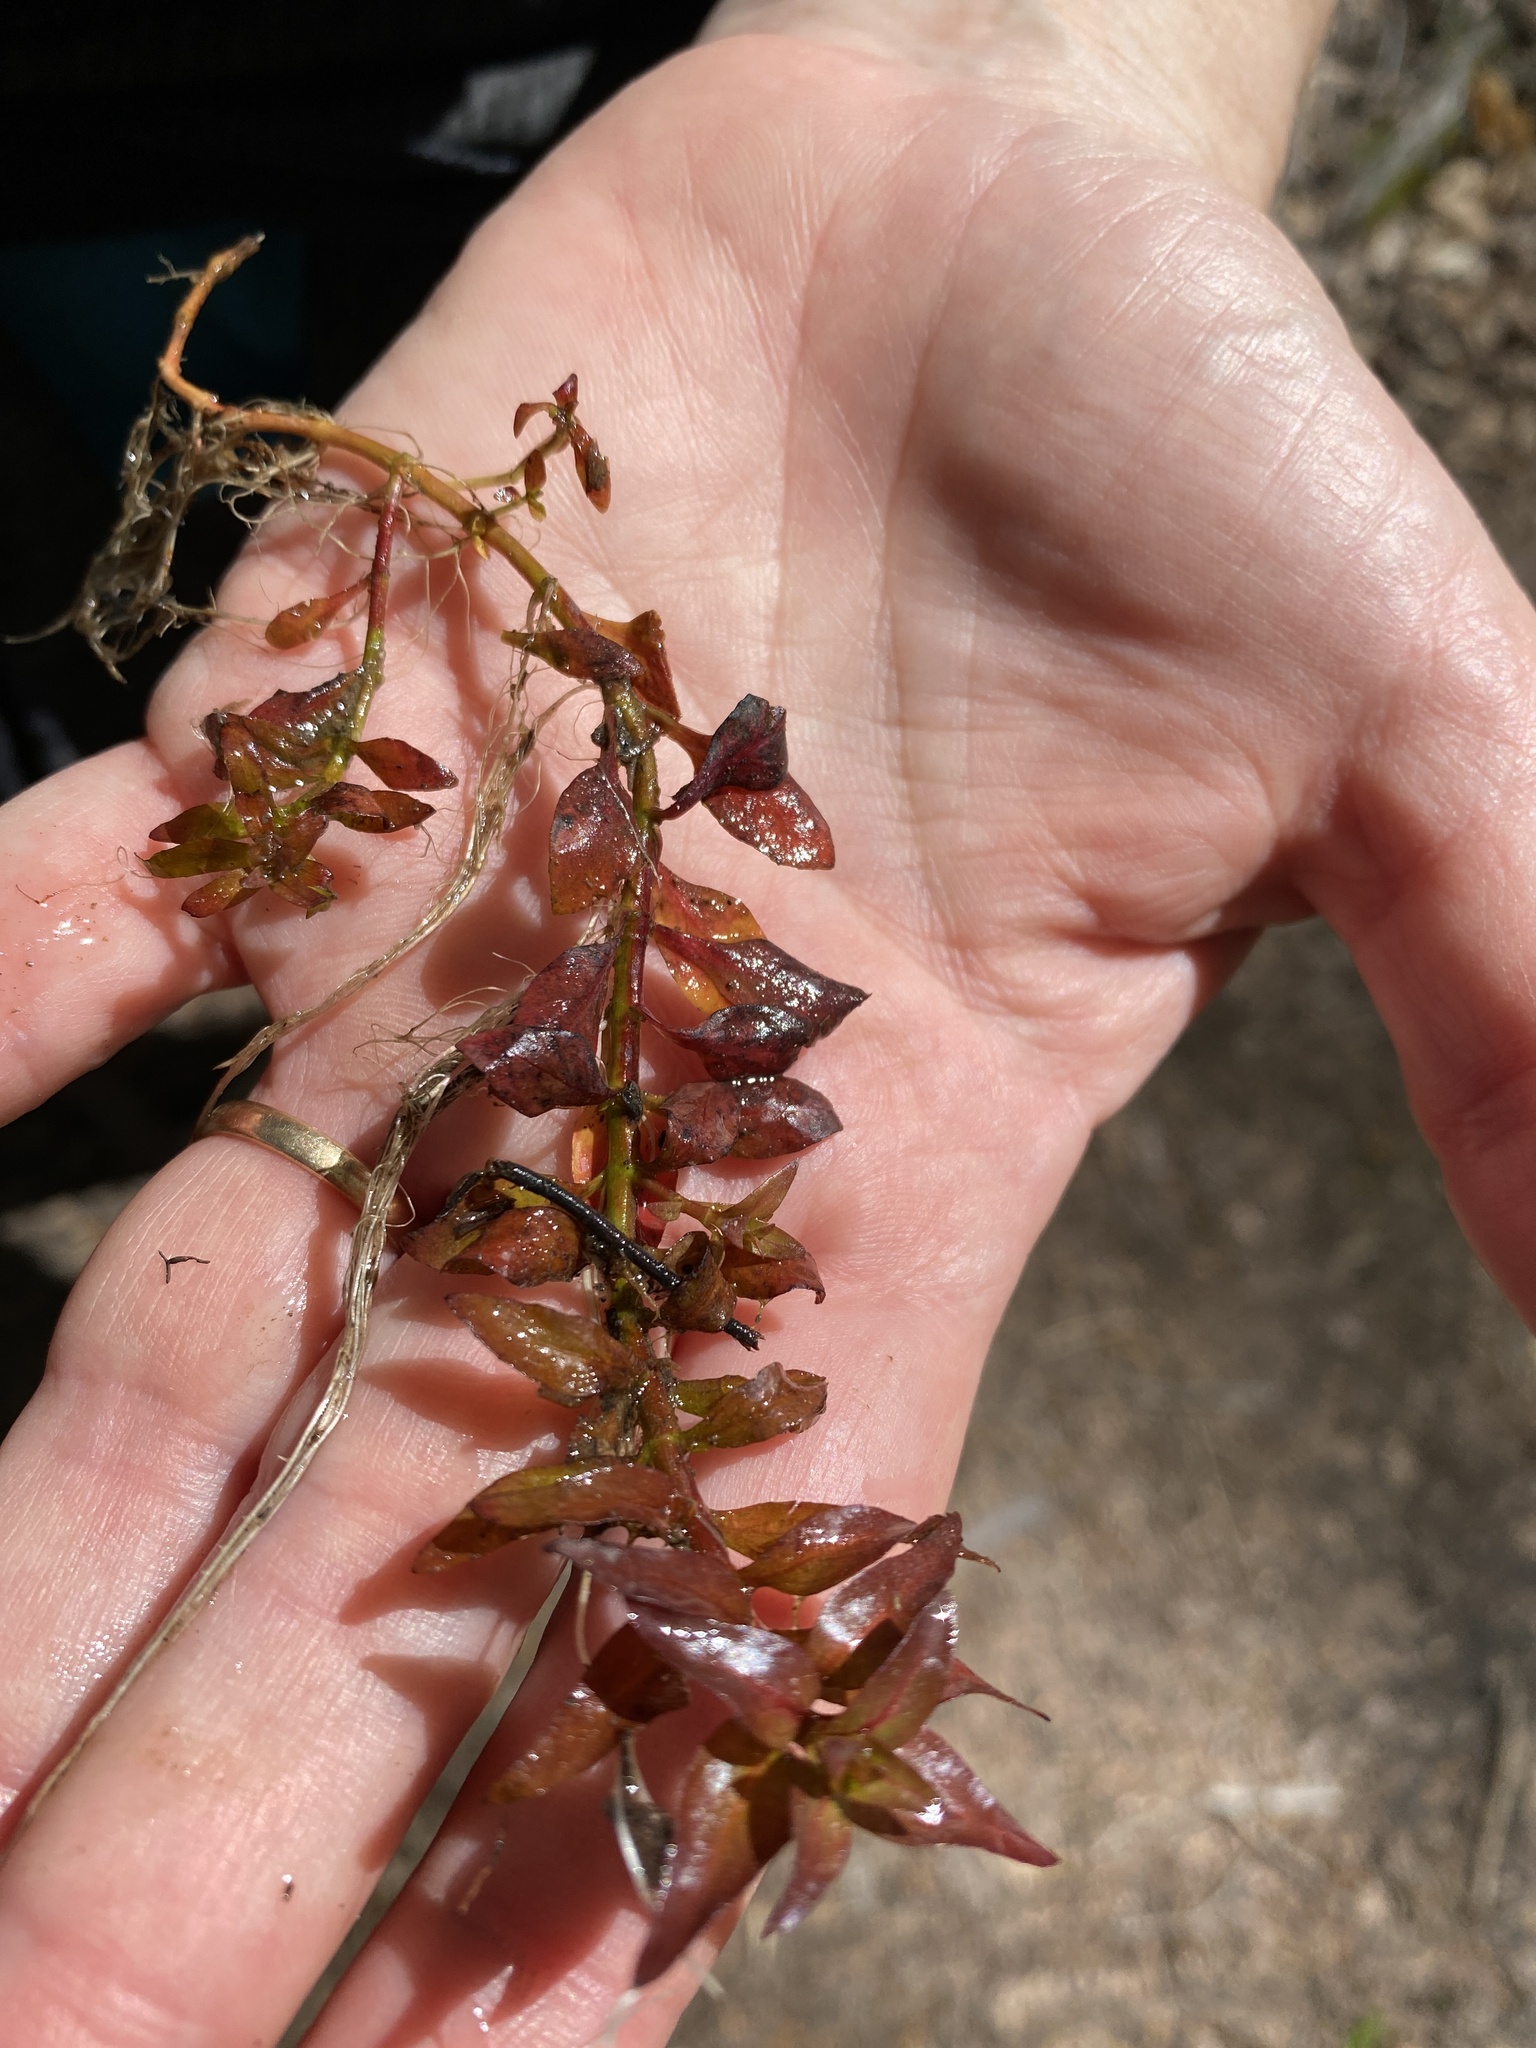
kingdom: Plantae
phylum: Tracheophyta
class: Magnoliopsida
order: Myrtales
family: Onagraceae
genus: Ludwigia
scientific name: Ludwigia palustris
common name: Hampshire-purslane
